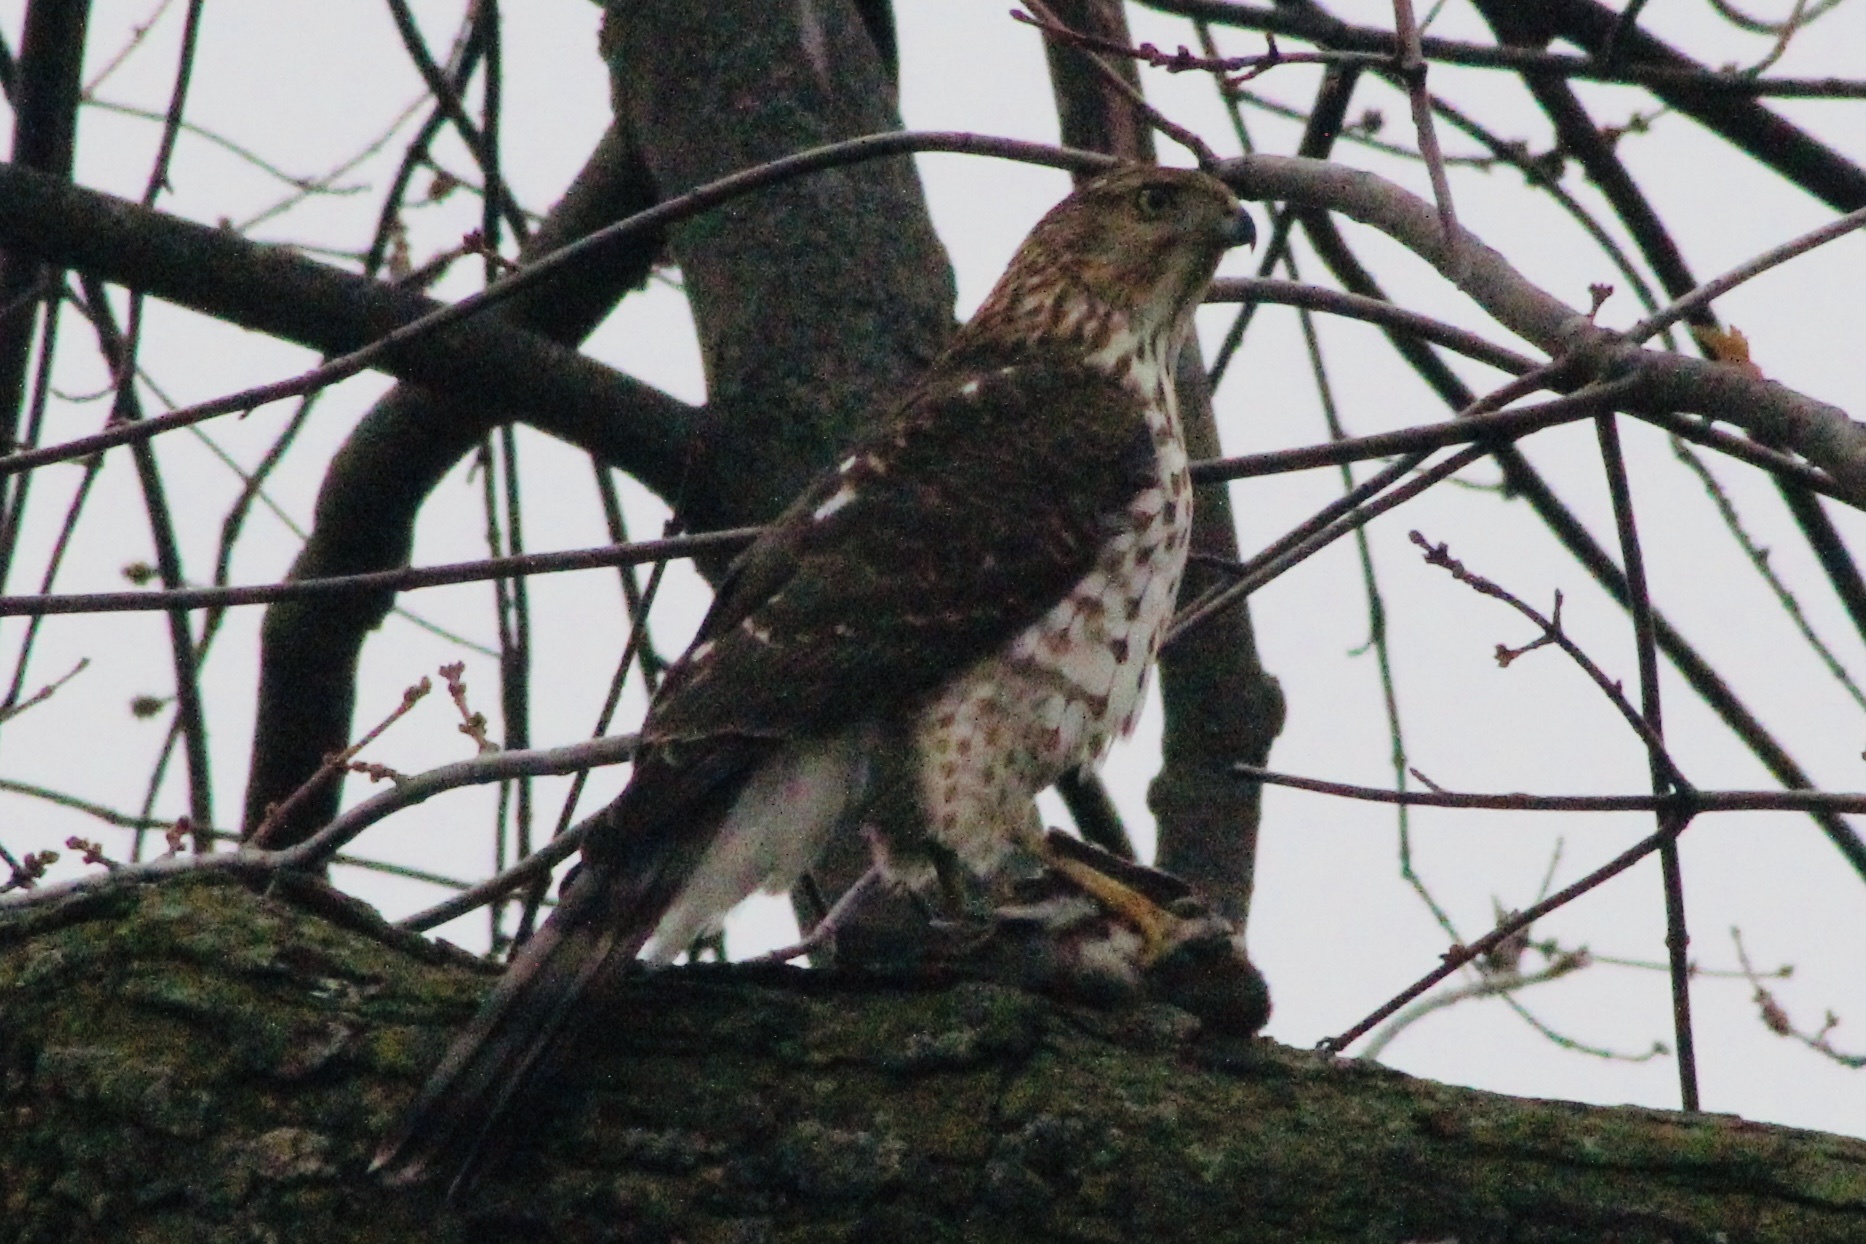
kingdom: Animalia
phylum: Chordata
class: Aves
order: Accipitriformes
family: Accipitridae
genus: Accipiter
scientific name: Accipiter cooperii
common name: Cooper's hawk
